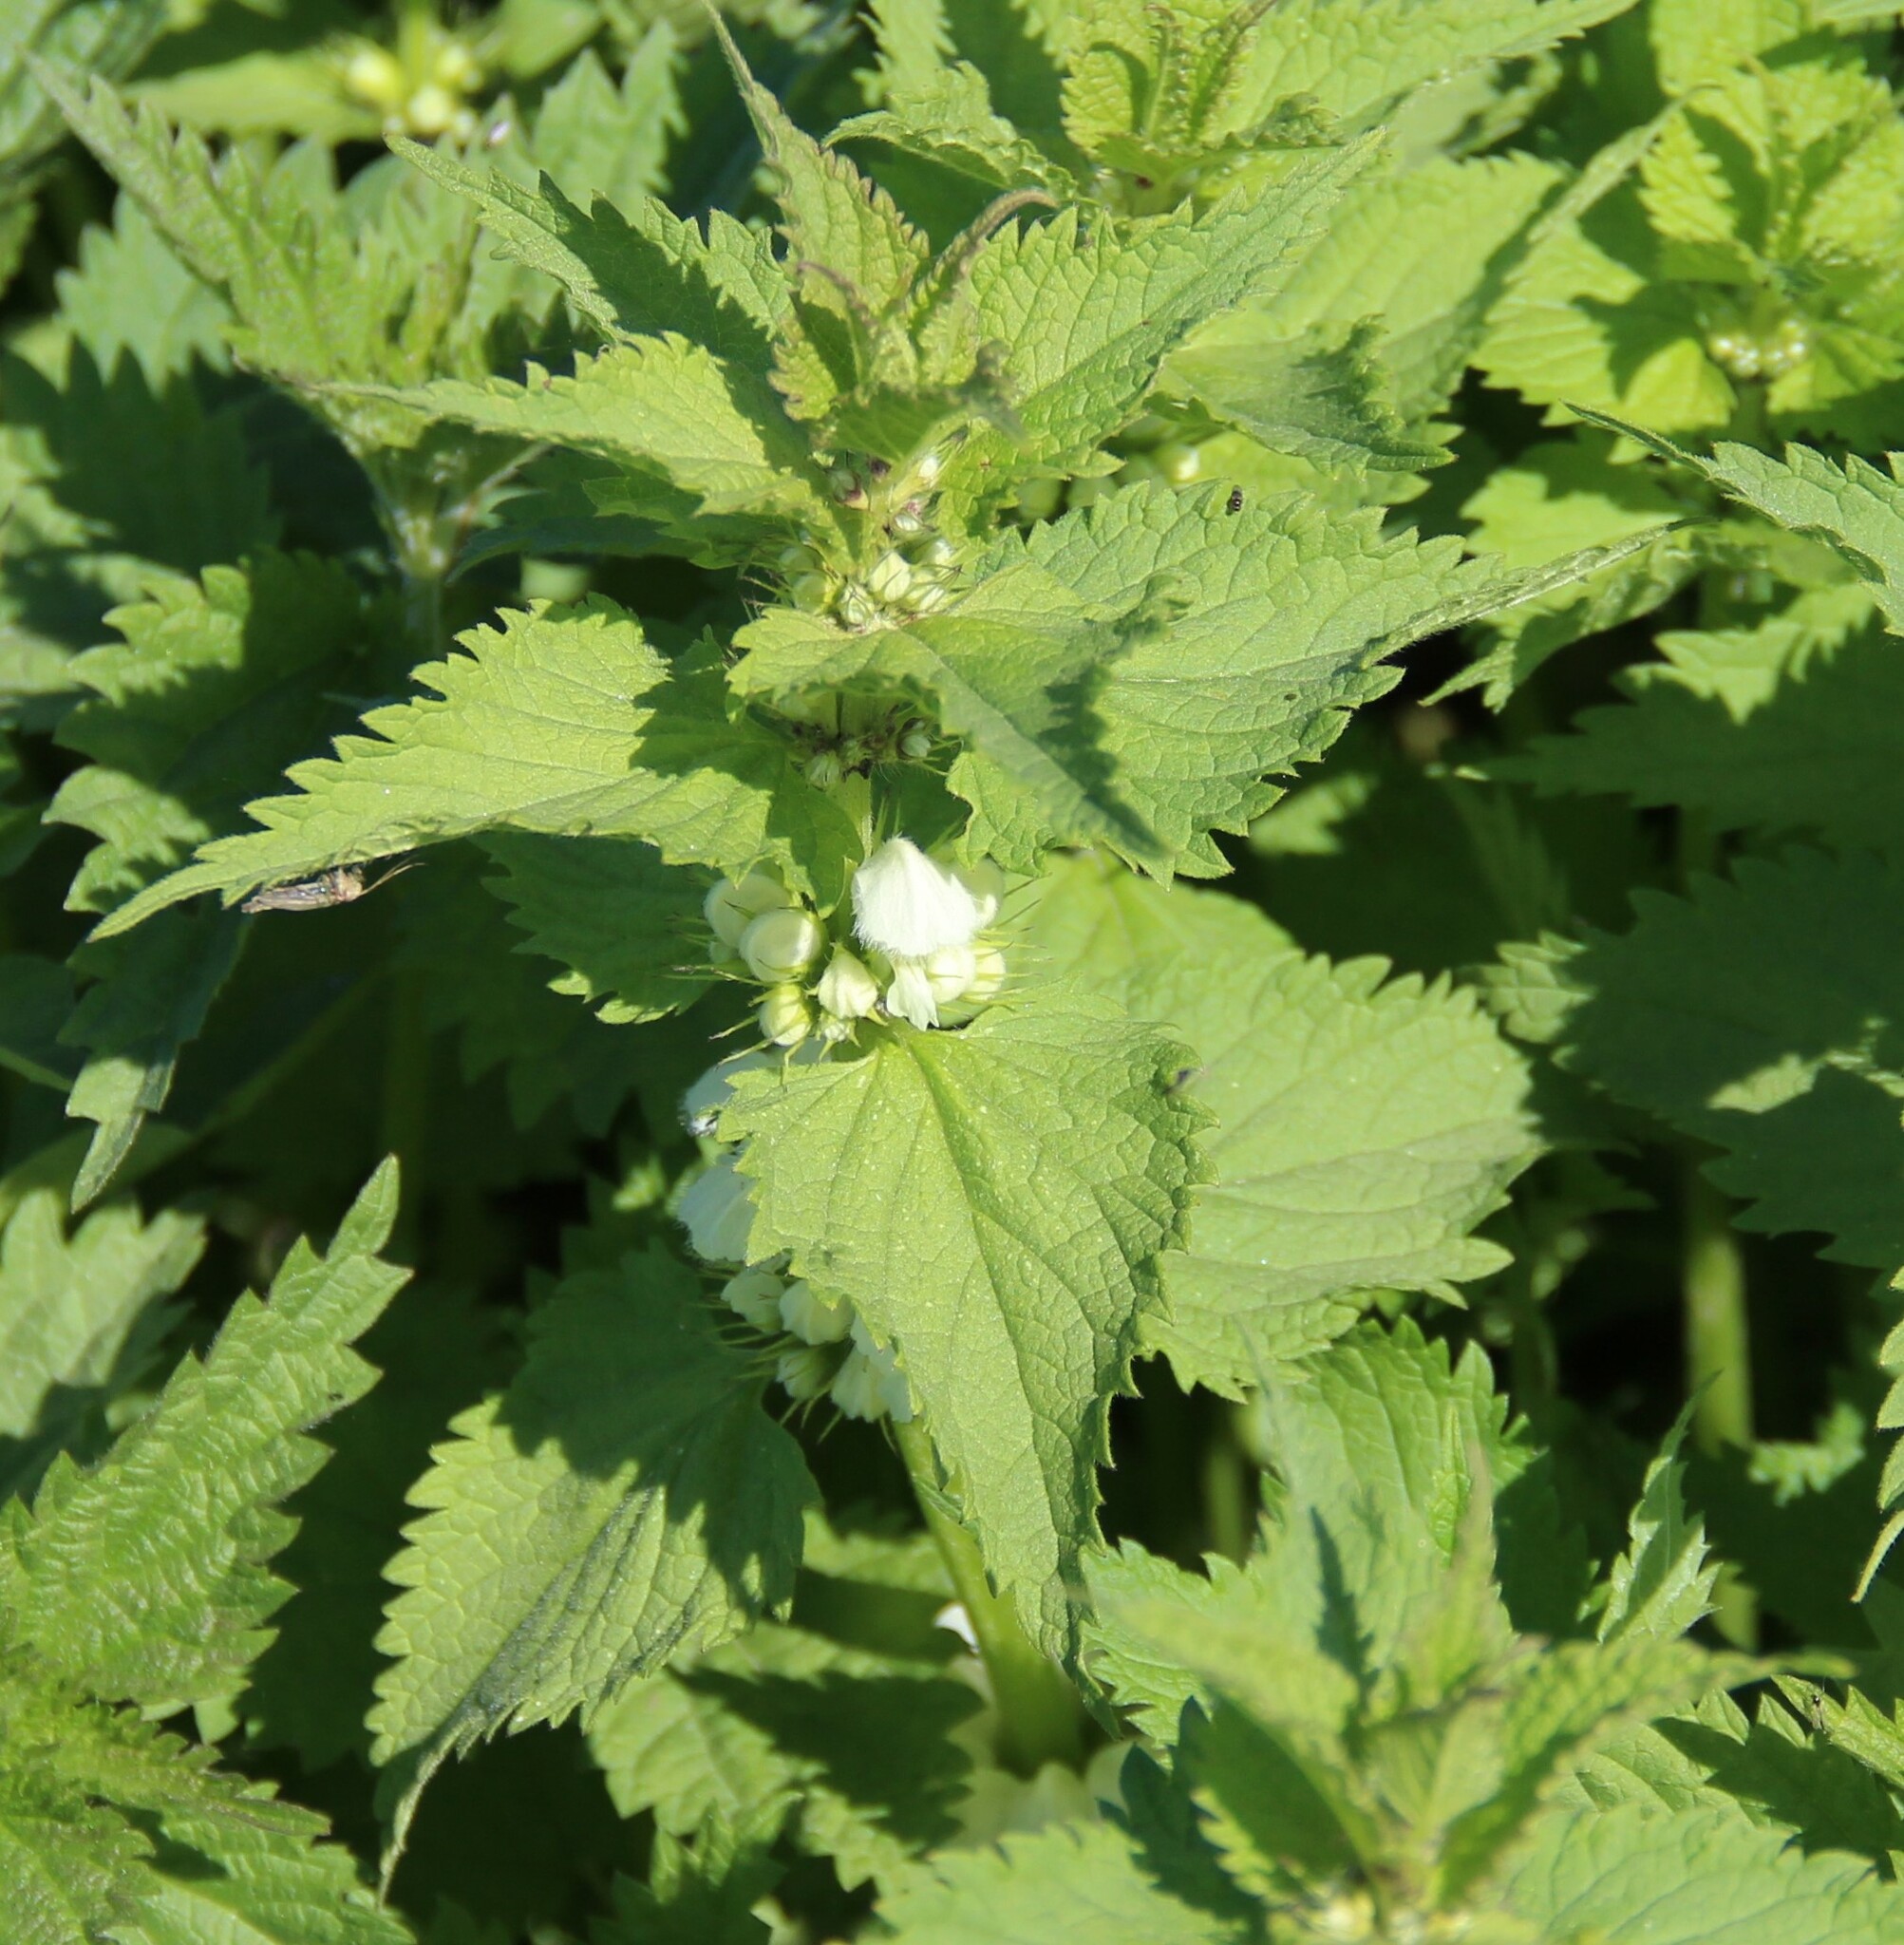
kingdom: Plantae
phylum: Tracheophyta
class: Magnoliopsida
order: Lamiales
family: Lamiaceae
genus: Lamium
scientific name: Lamium album
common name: White dead-nettle
